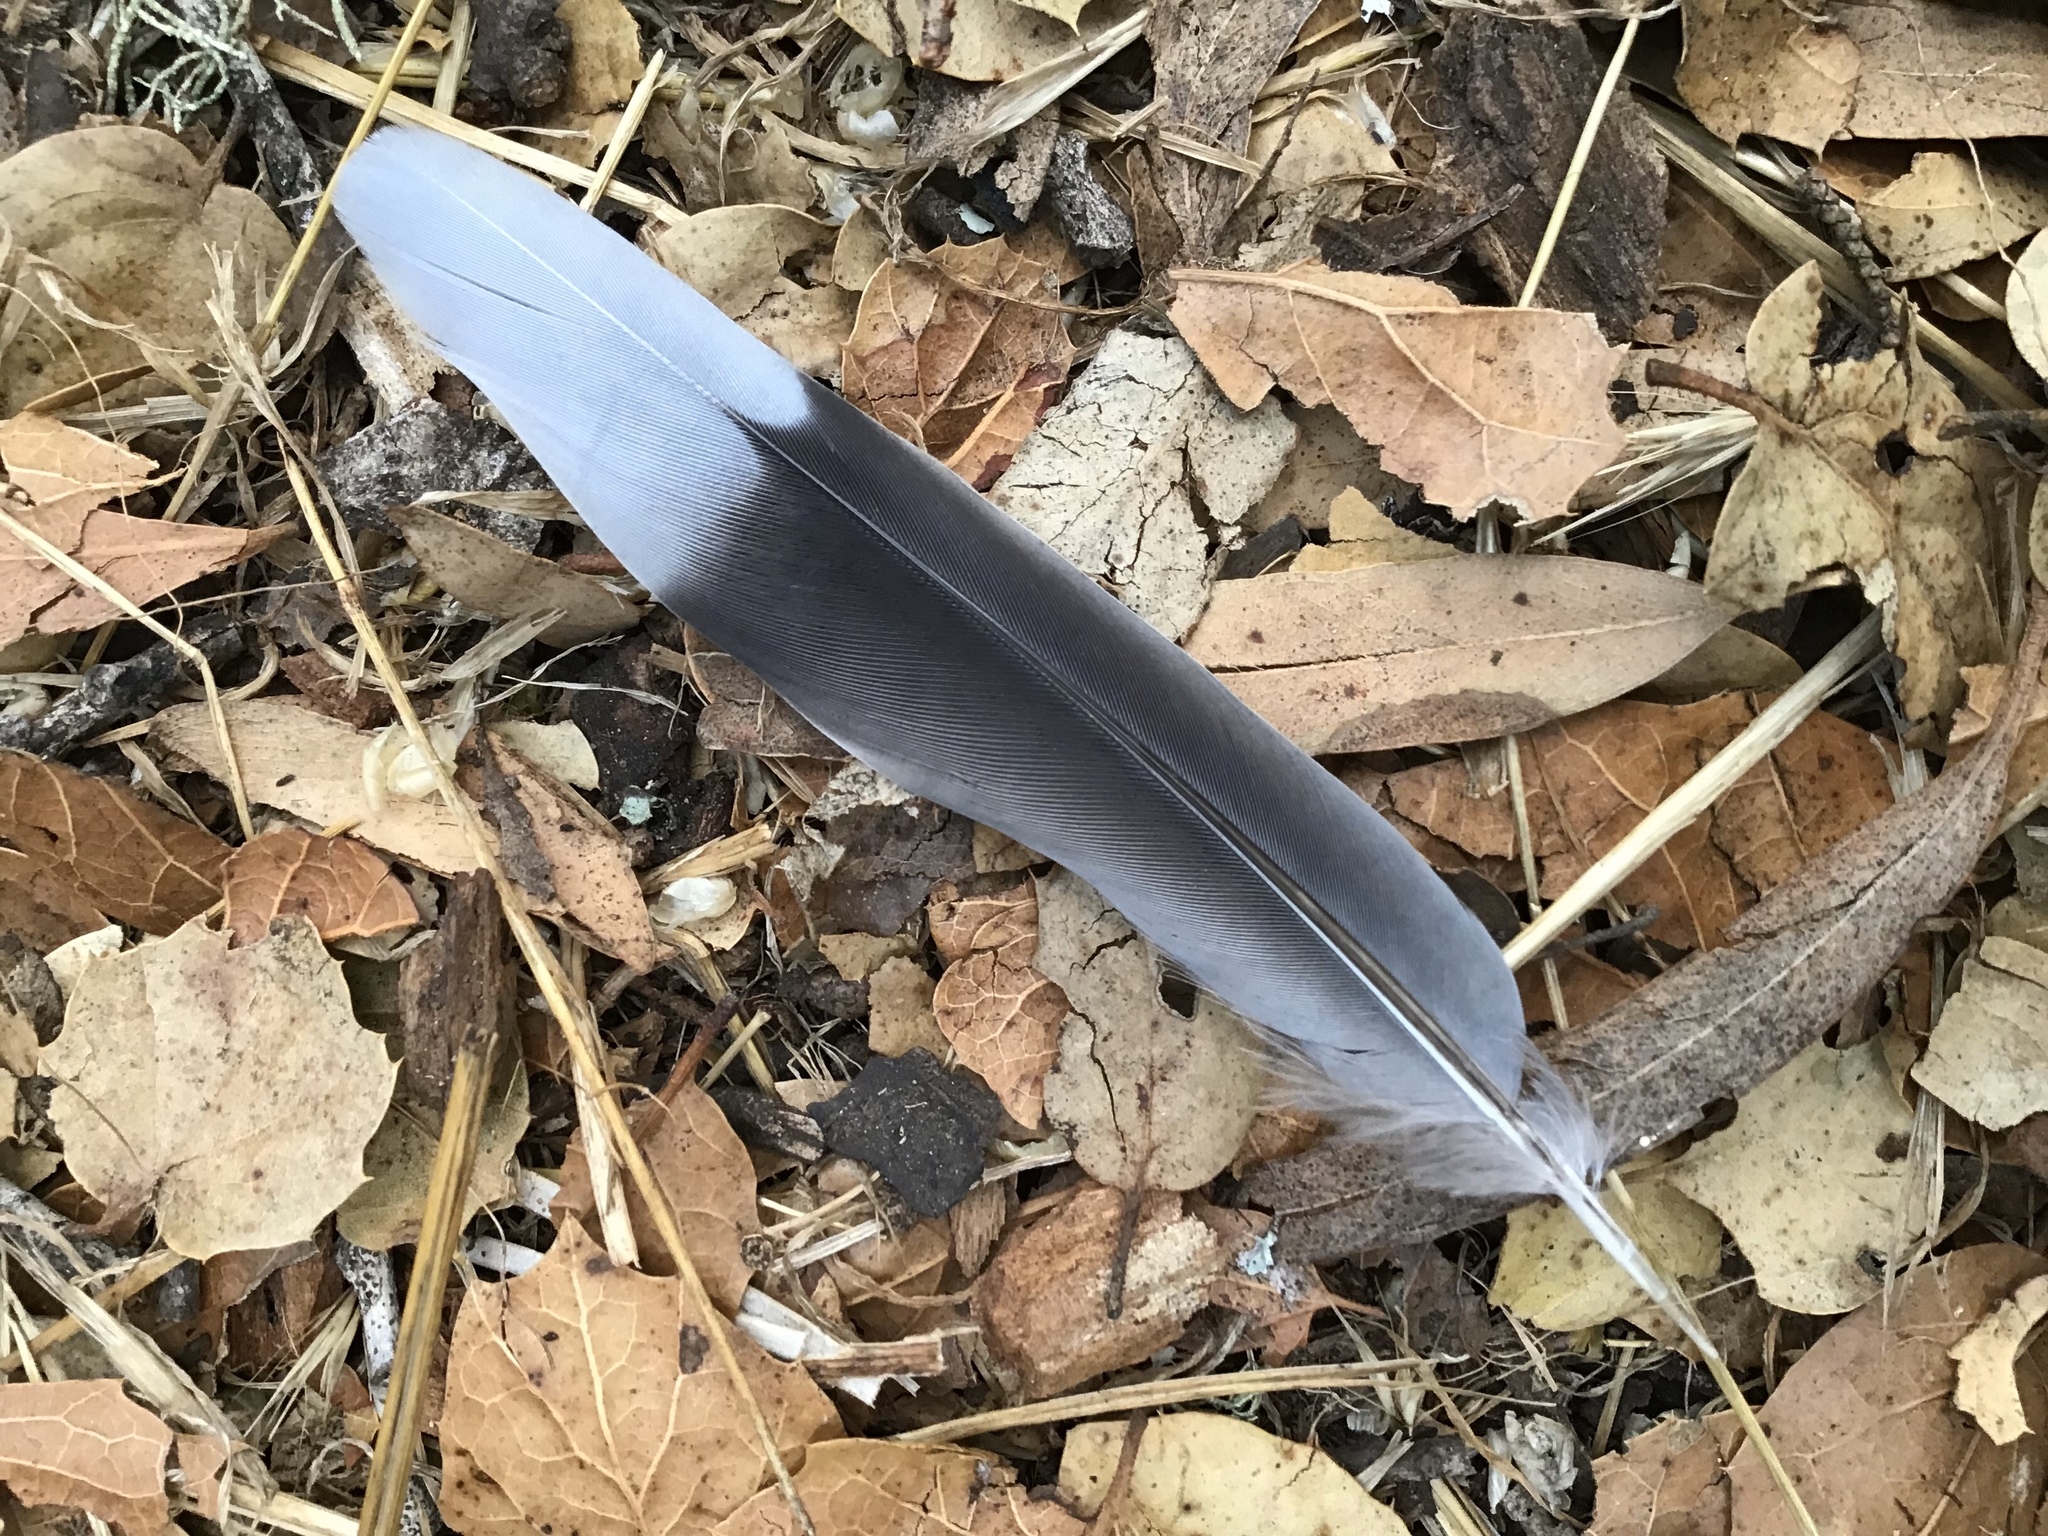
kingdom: Animalia
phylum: Chordata
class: Aves
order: Columbiformes
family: Columbidae
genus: Zenaida
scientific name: Zenaida macroura
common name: Mourning dove
